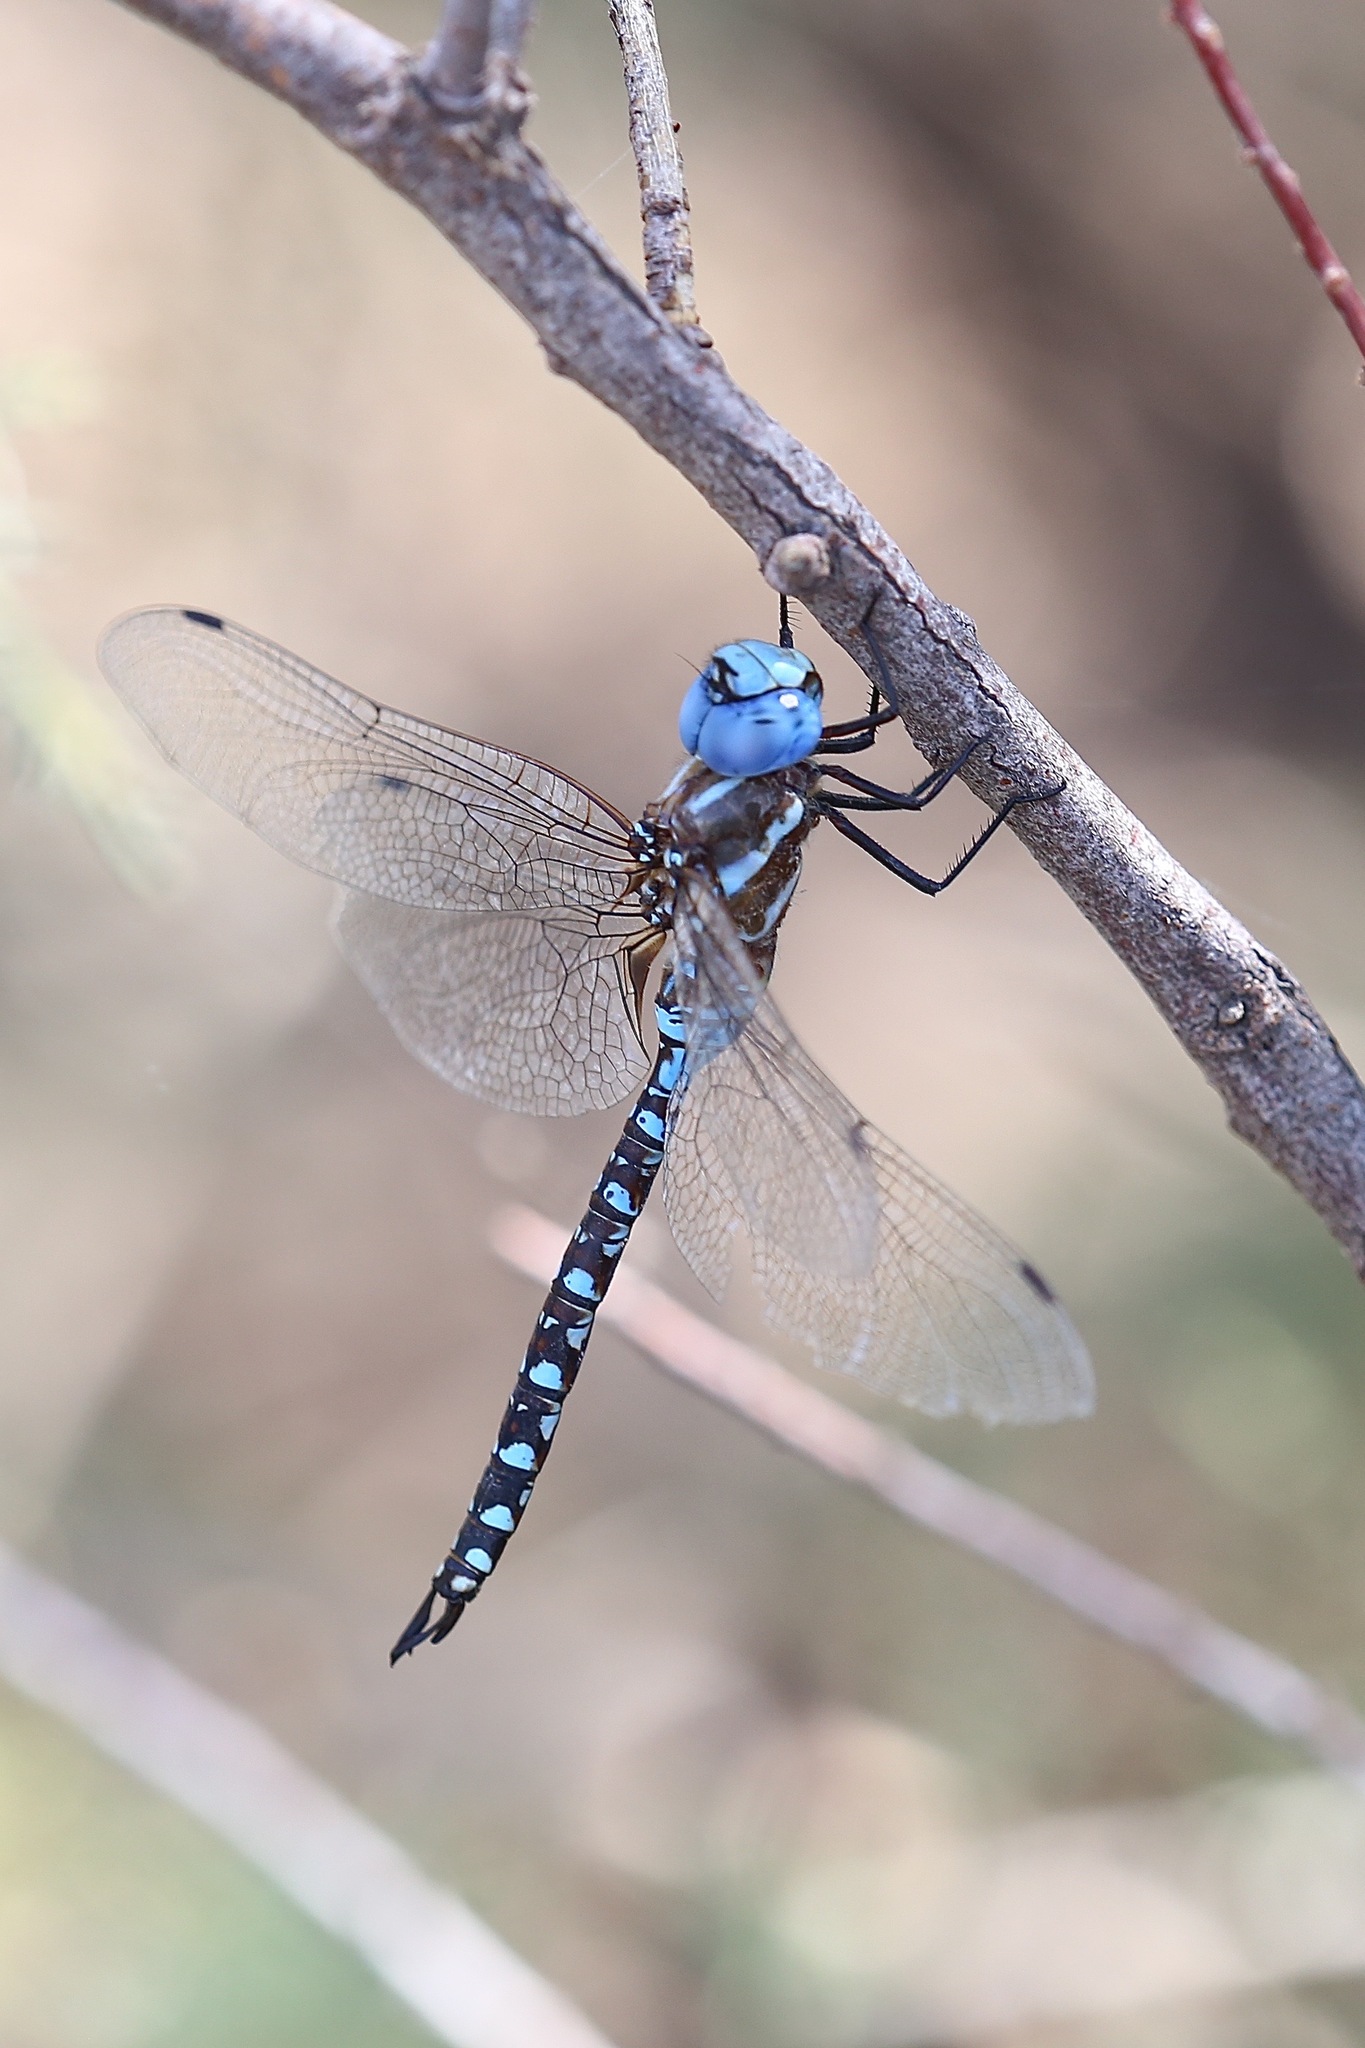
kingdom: Animalia
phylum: Arthropoda
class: Insecta
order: Odonata
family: Aeshnidae
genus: Rhionaeschna
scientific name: Rhionaeschna multicolor
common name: Blue-eyed darner
